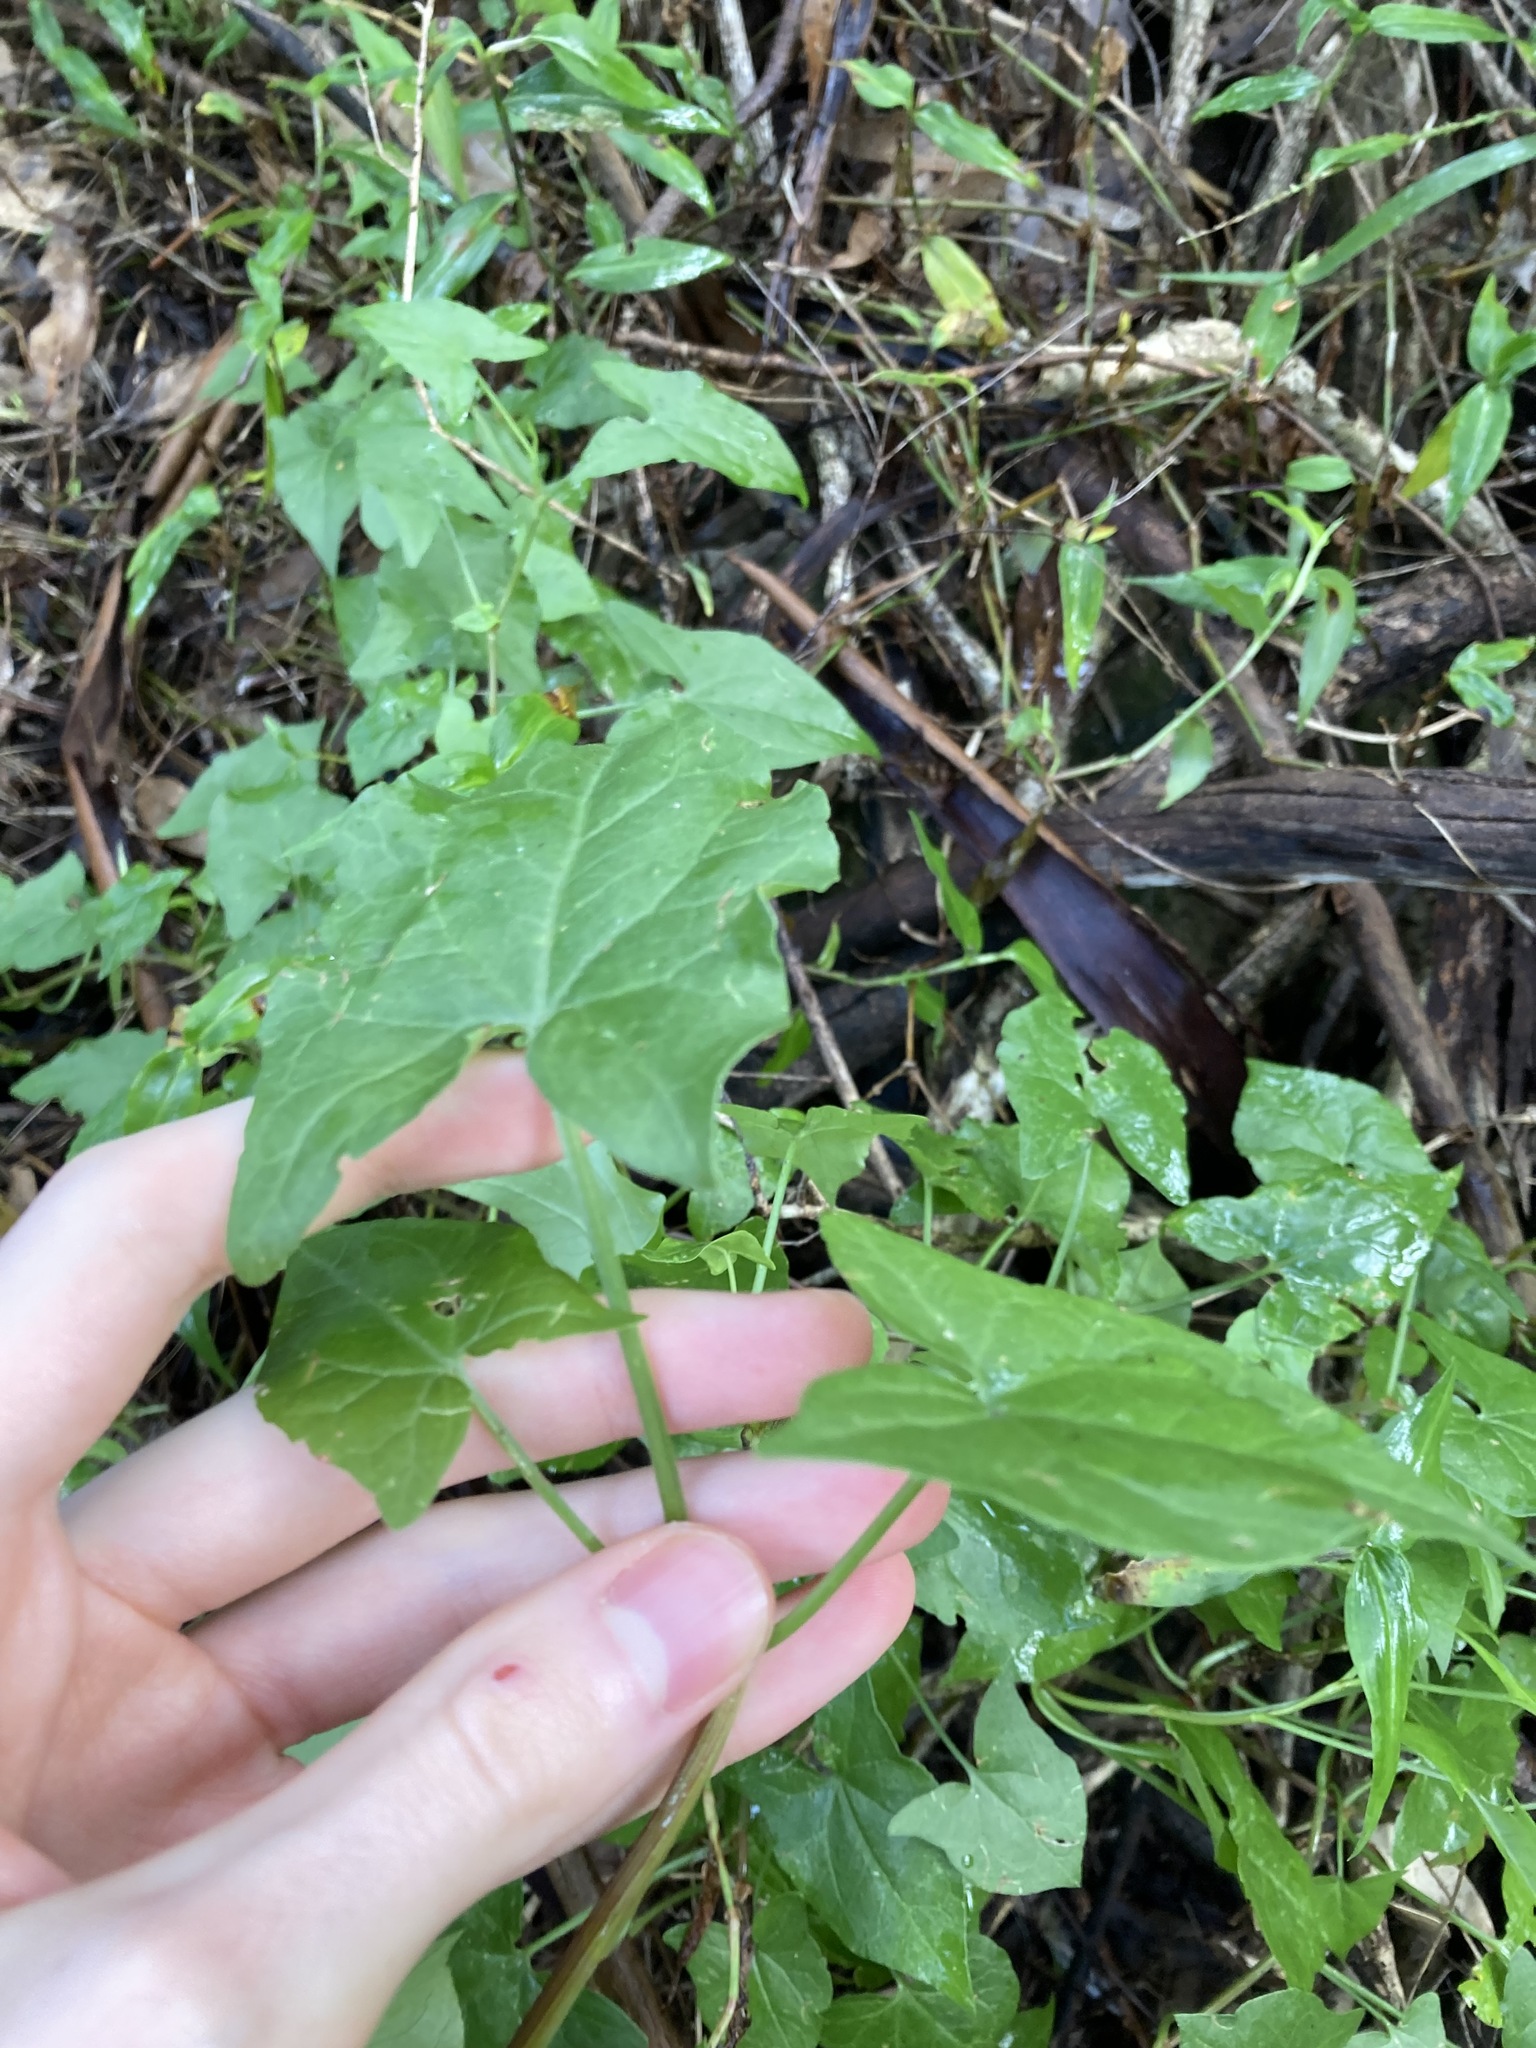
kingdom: Plantae
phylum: Tracheophyta
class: Magnoliopsida
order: Caryophyllales
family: Polygonaceae
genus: Rumex
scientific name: Rumex sagittatus
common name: Climbing dock
